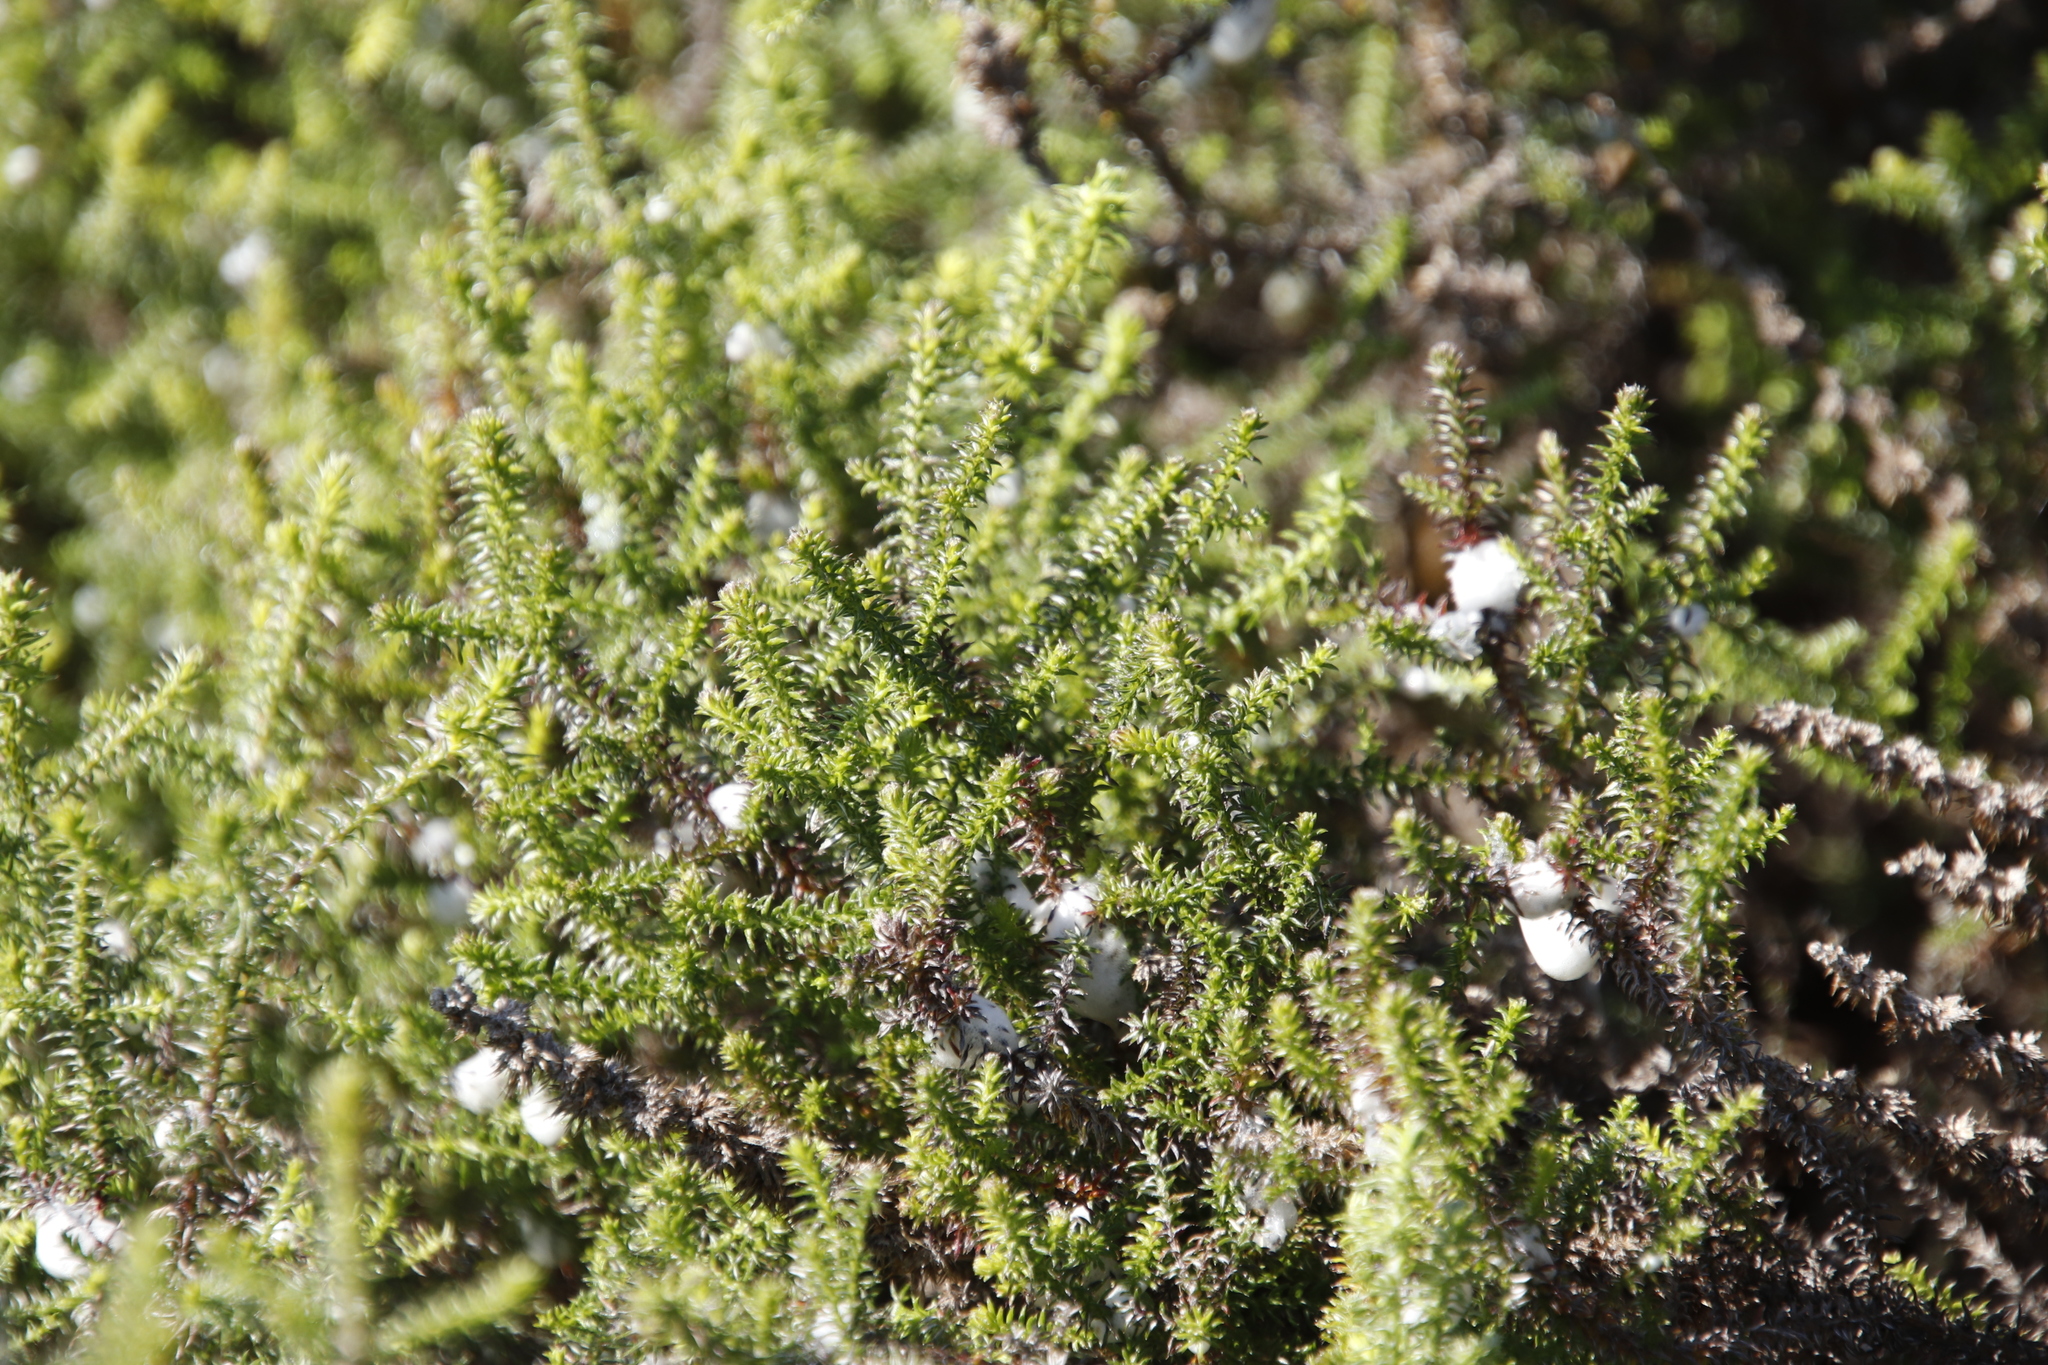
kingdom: Plantae
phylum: Tracheophyta
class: Magnoliopsida
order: Asterales
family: Asteraceae
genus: Seriphium
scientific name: Seriphium cinereum
